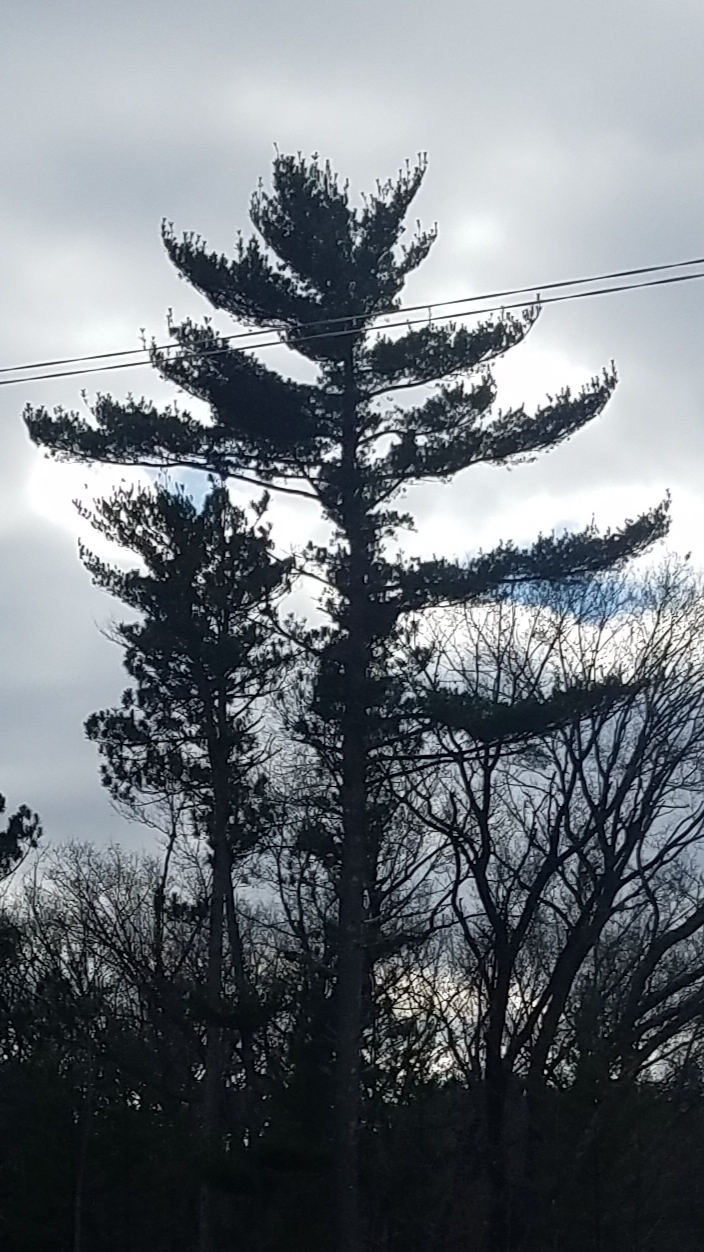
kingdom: Plantae
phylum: Tracheophyta
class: Pinopsida
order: Pinales
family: Pinaceae
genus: Pinus
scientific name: Pinus strobus
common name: Weymouth pine
